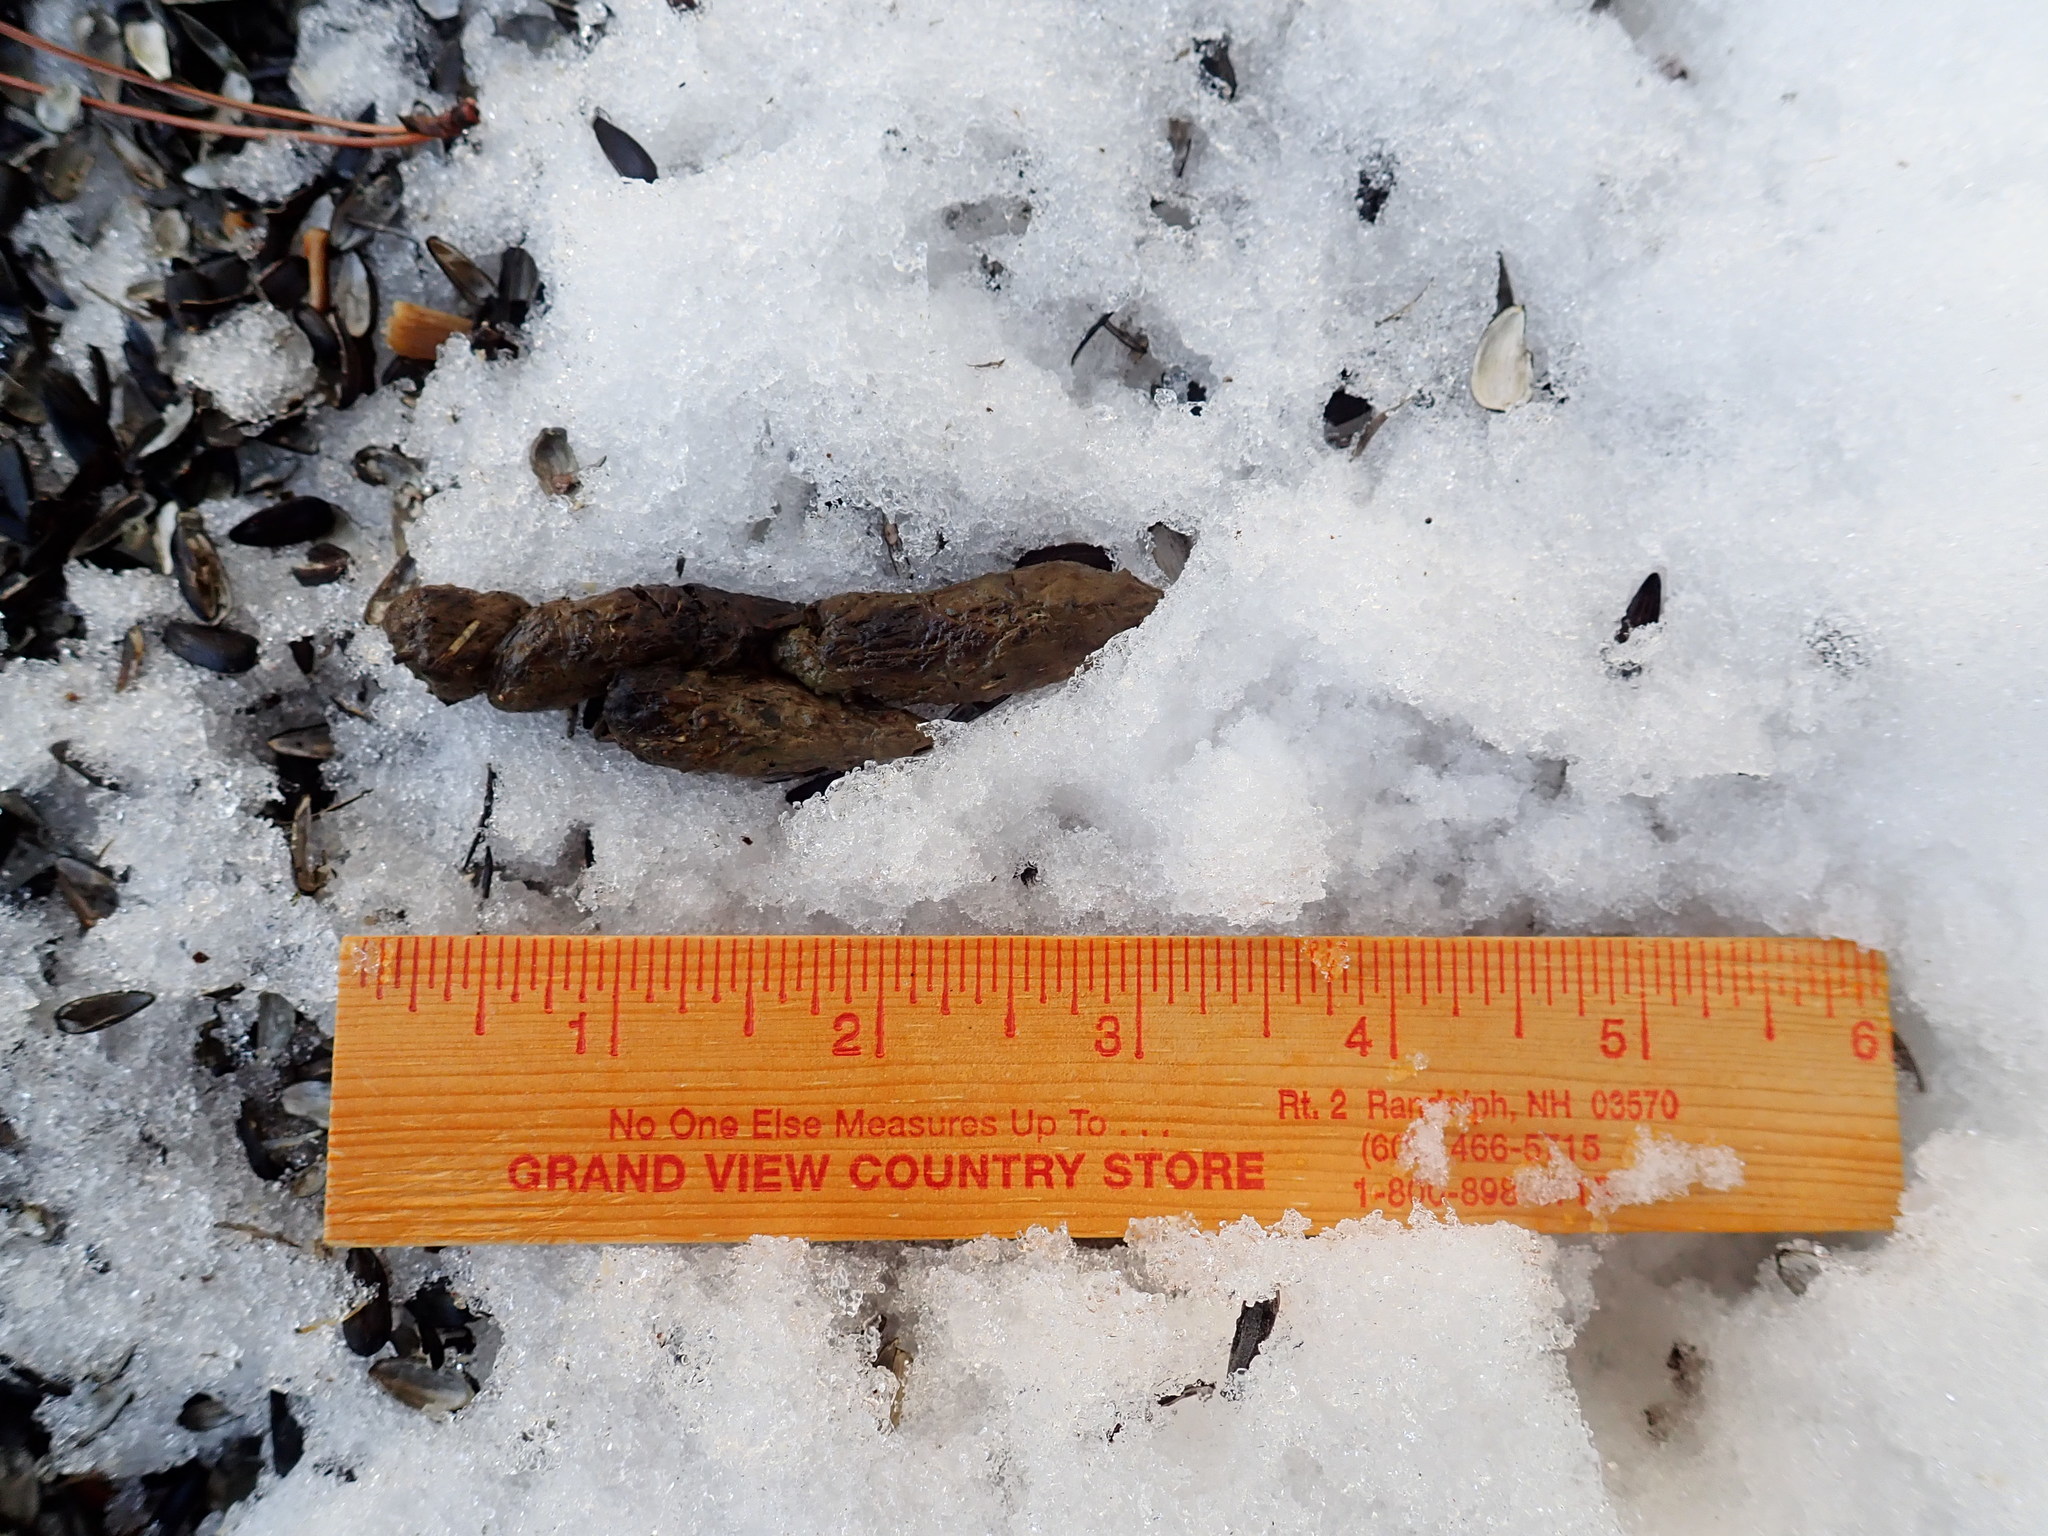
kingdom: Animalia
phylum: Chordata
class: Mammalia
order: Carnivora
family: Mustelidae
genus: Pekania
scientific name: Pekania pennanti
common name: Fisher
